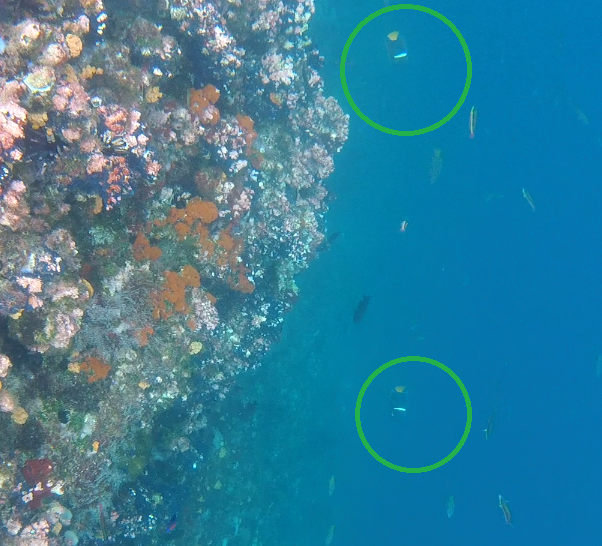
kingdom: Animalia
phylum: Chordata
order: Perciformes
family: Pomacanthidae
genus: Holacanthus
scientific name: Holacanthus passer
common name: King angelfish
